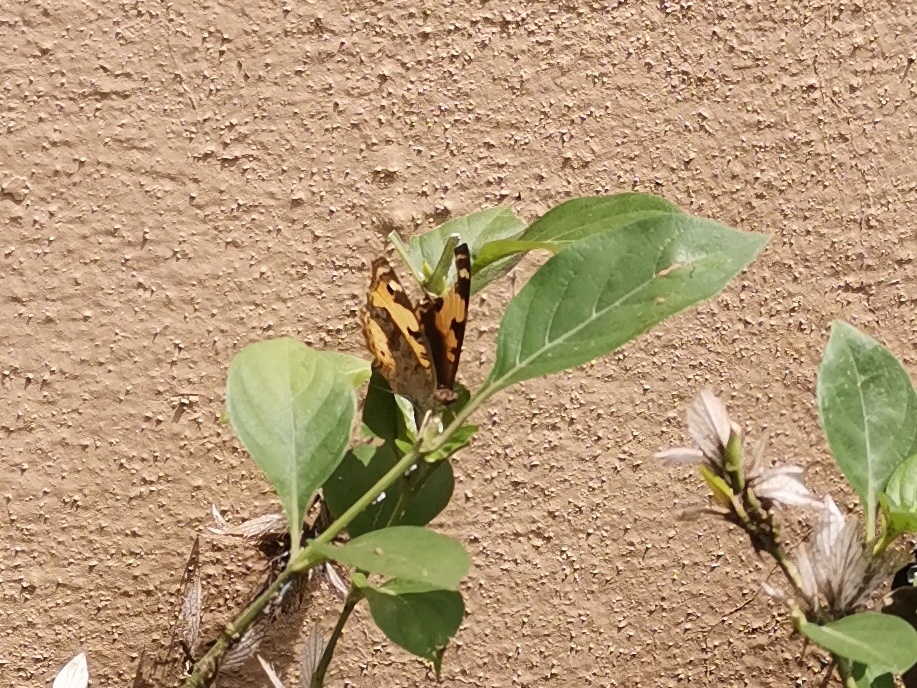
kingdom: Animalia
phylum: Arthropoda
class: Insecta
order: Lepidoptera
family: Nymphalidae
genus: Junonia
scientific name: Junonia hierta
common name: Yellow pansy
